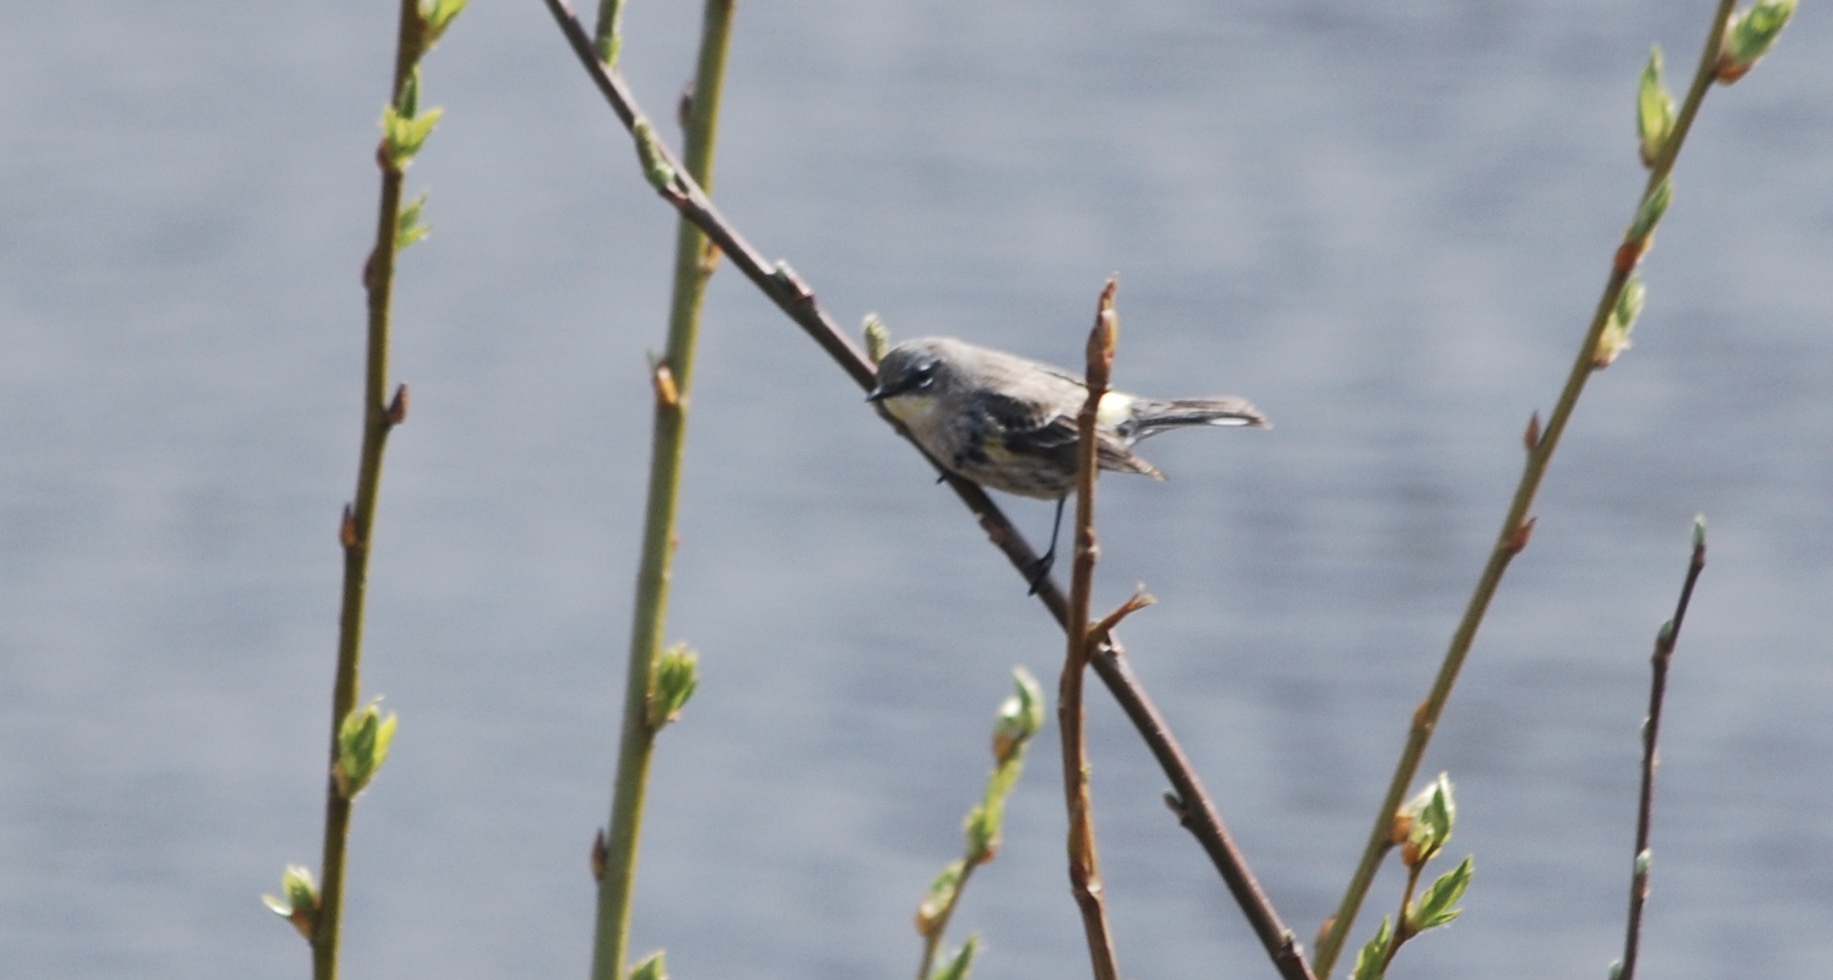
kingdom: Animalia
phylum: Chordata
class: Aves
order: Passeriformes
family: Parulidae
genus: Setophaga
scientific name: Setophaga coronata
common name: Myrtle warbler
